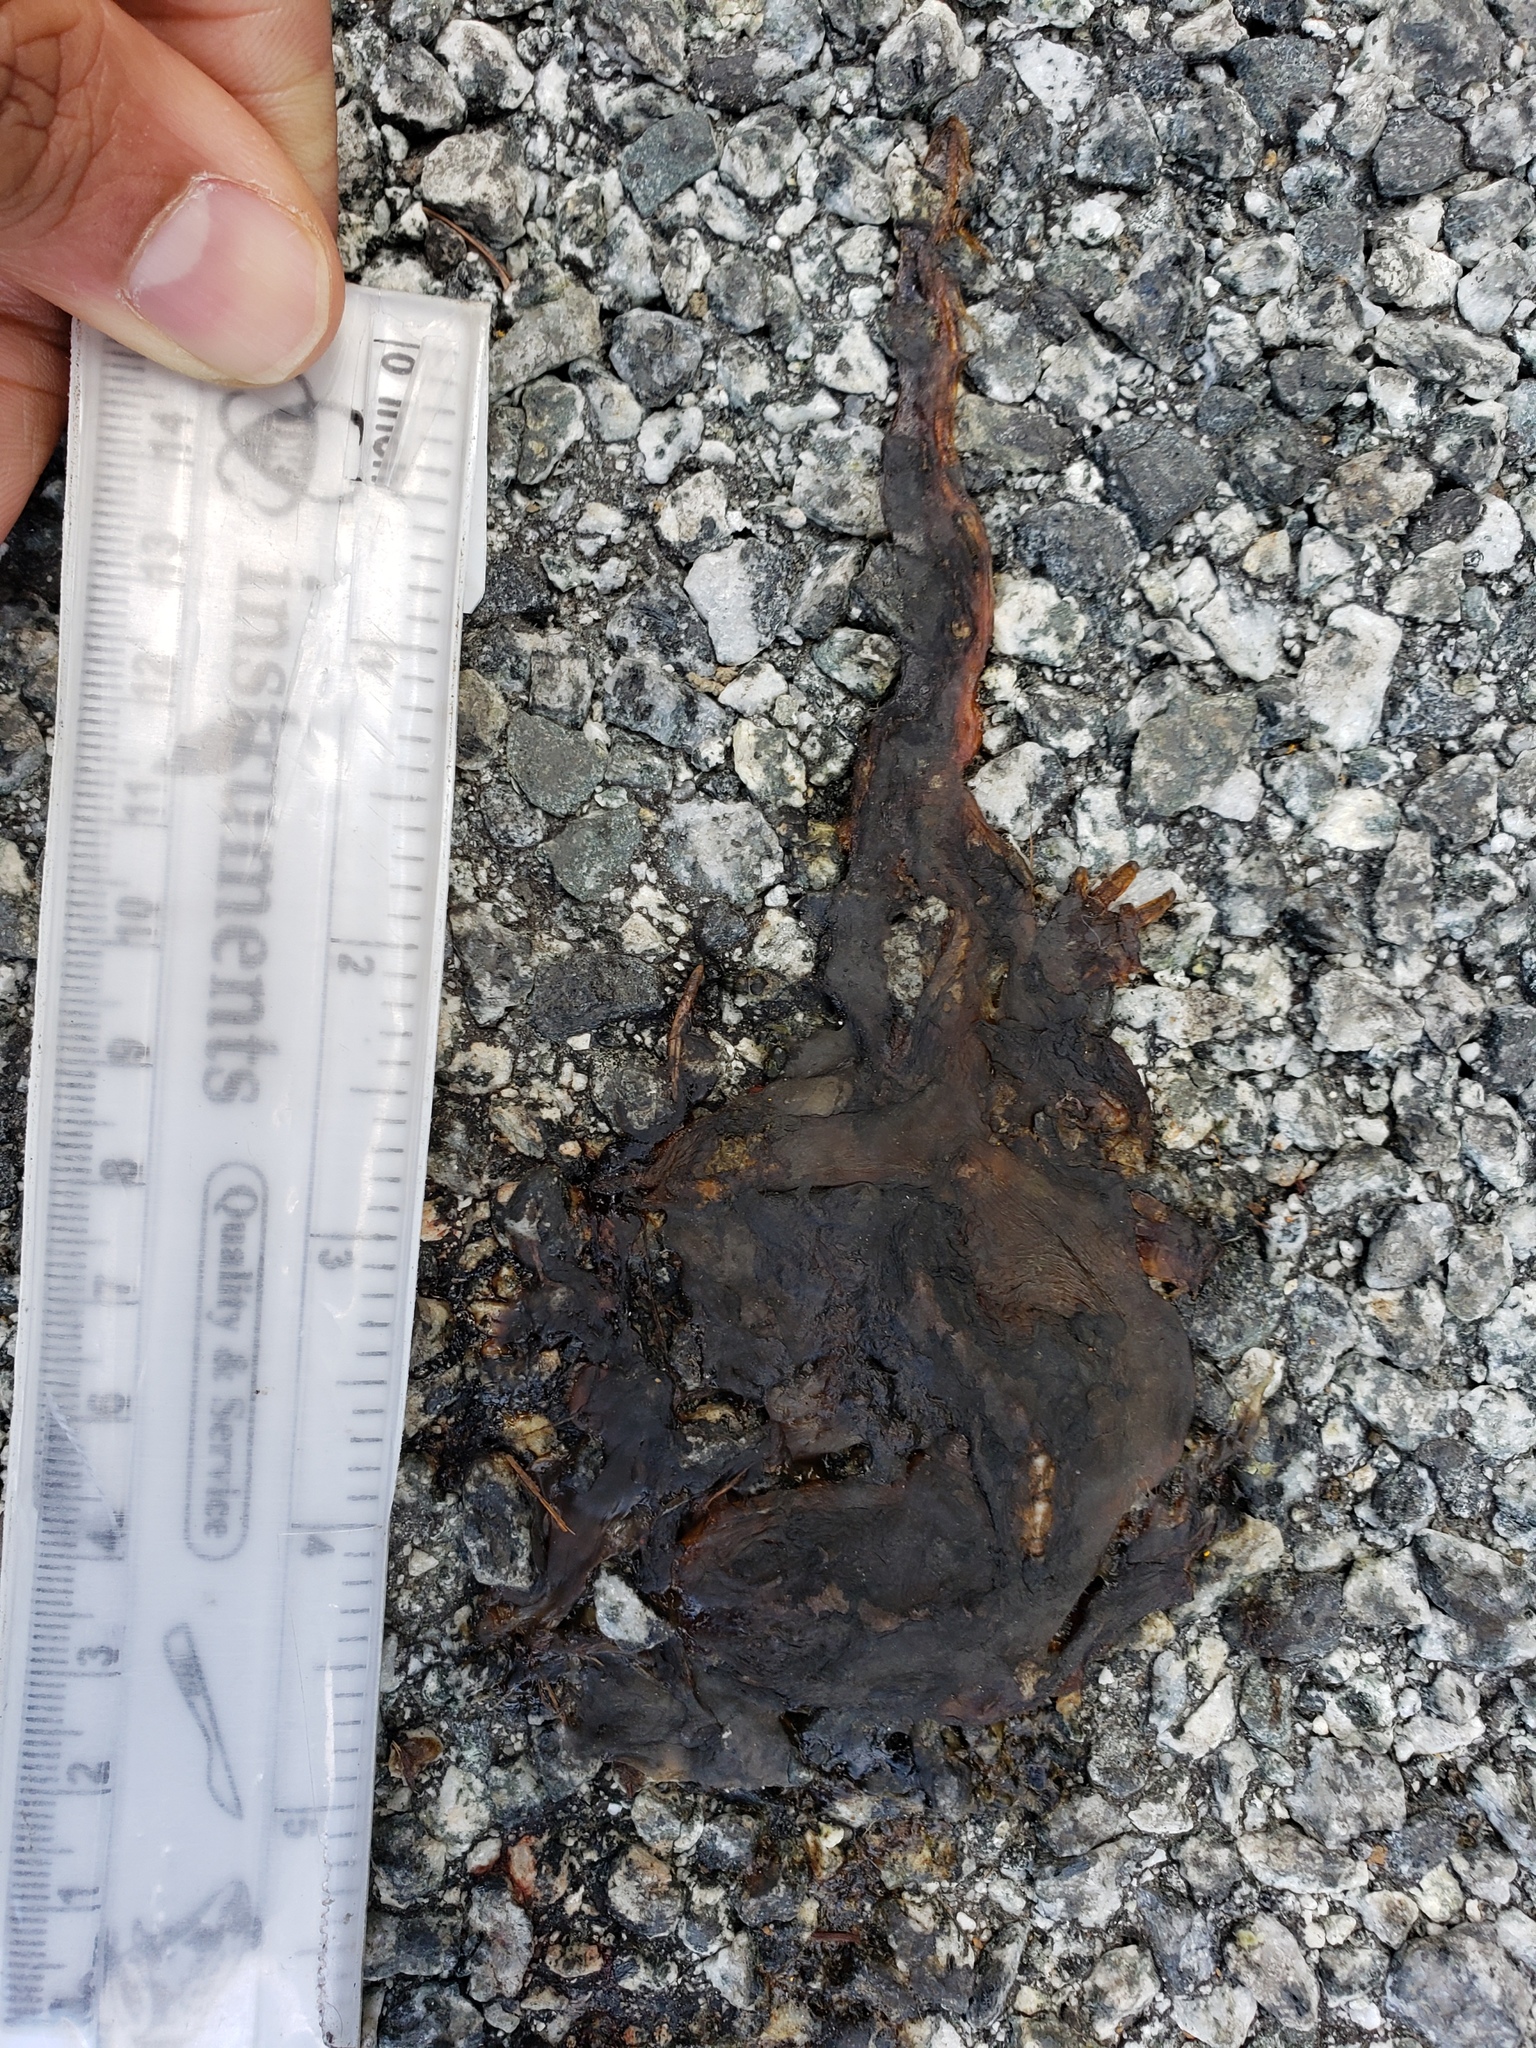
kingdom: Animalia
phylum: Chordata
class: Amphibia
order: Caudata
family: Salamandridae
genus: Taricha
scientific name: Taricha
